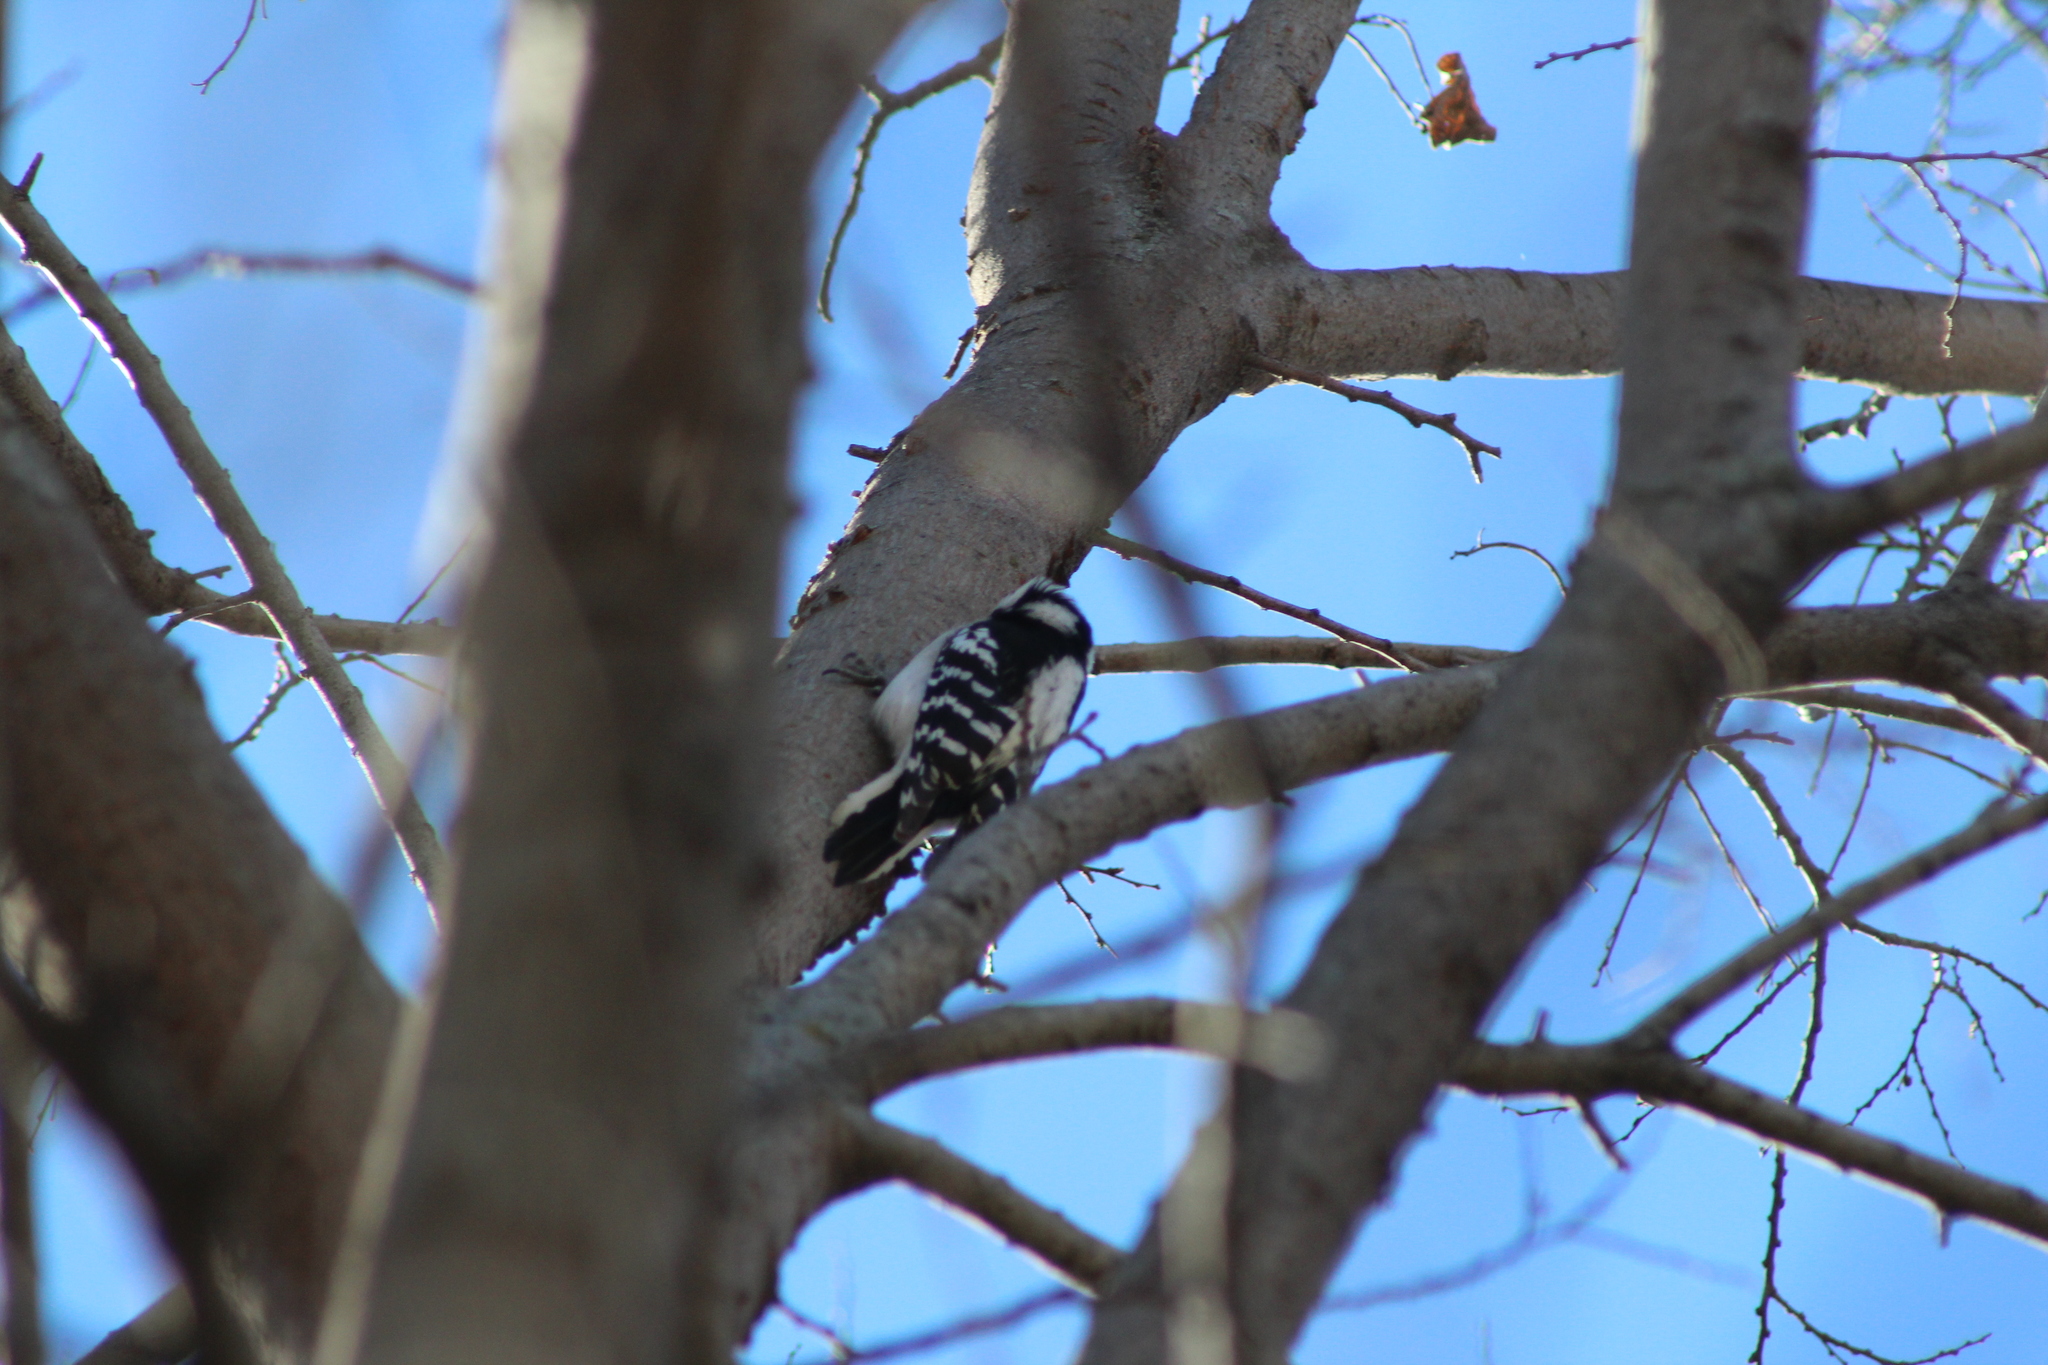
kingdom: Animalia
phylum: Chordata
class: Aves
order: Piciformes
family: Picidae
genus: Dryobates
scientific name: Dryobates pubescens
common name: Downy woodpecker
